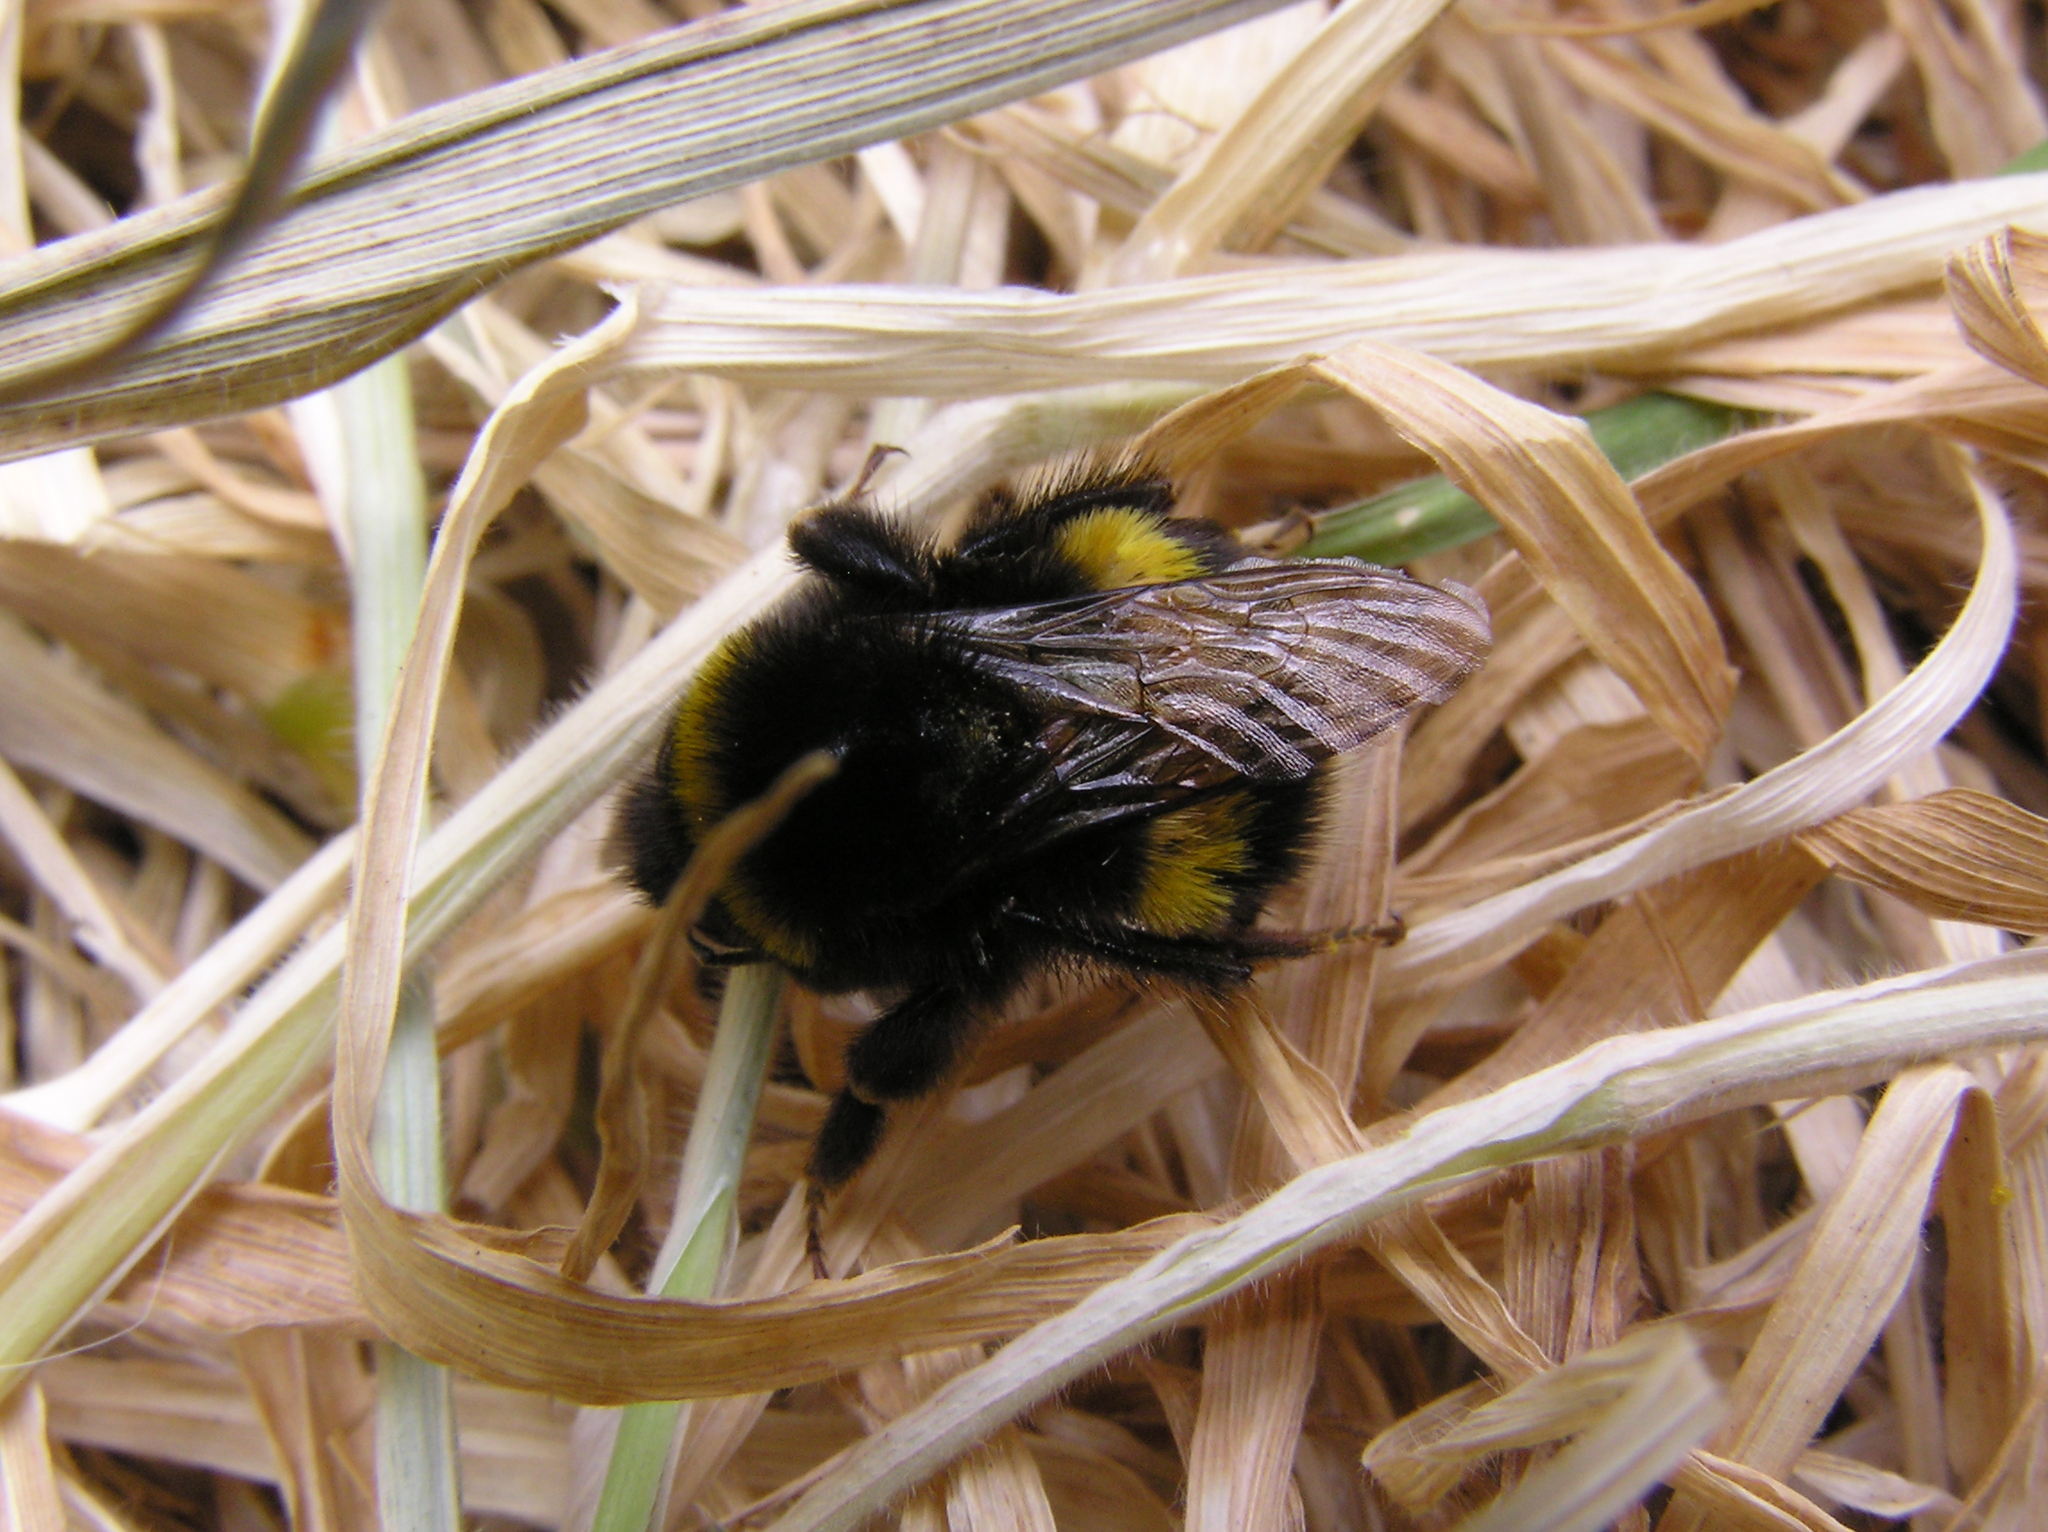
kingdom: Animalia
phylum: Arthropoda
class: Insecta
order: Hymenoptera
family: Apidae
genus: Bombus
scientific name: Bombus terrestris
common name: Buff-tailed bumblebee
